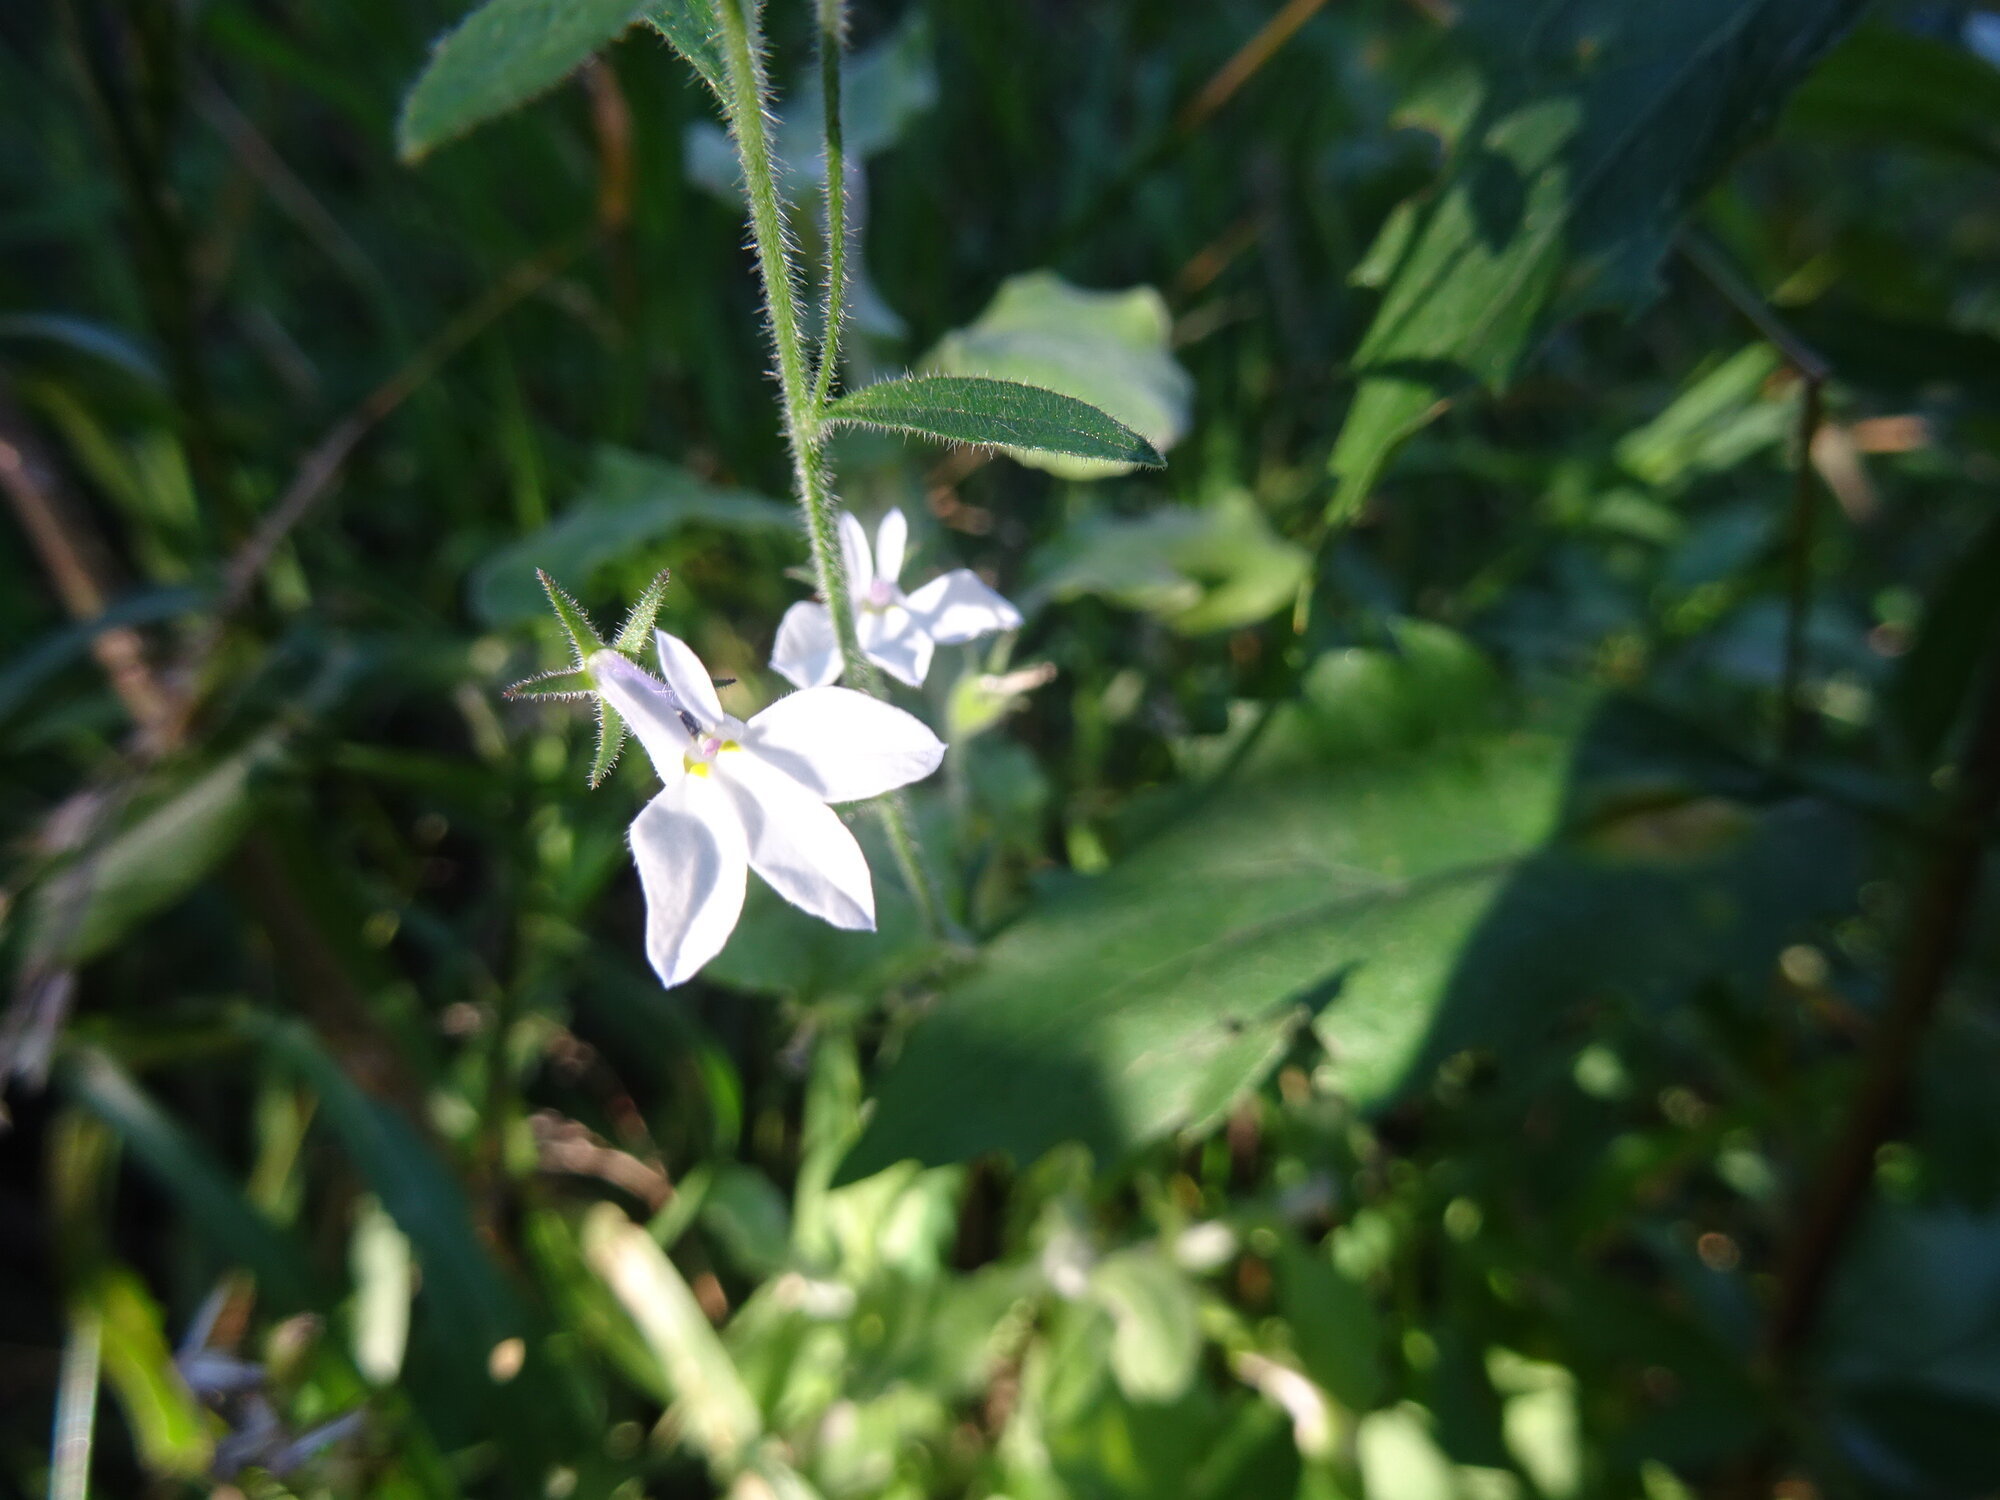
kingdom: Plantae
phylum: Tracheophyta
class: Magnoliopsida
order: Asterales
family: Campanulaceae
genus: Lobelia
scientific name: Lobelia pubescens
